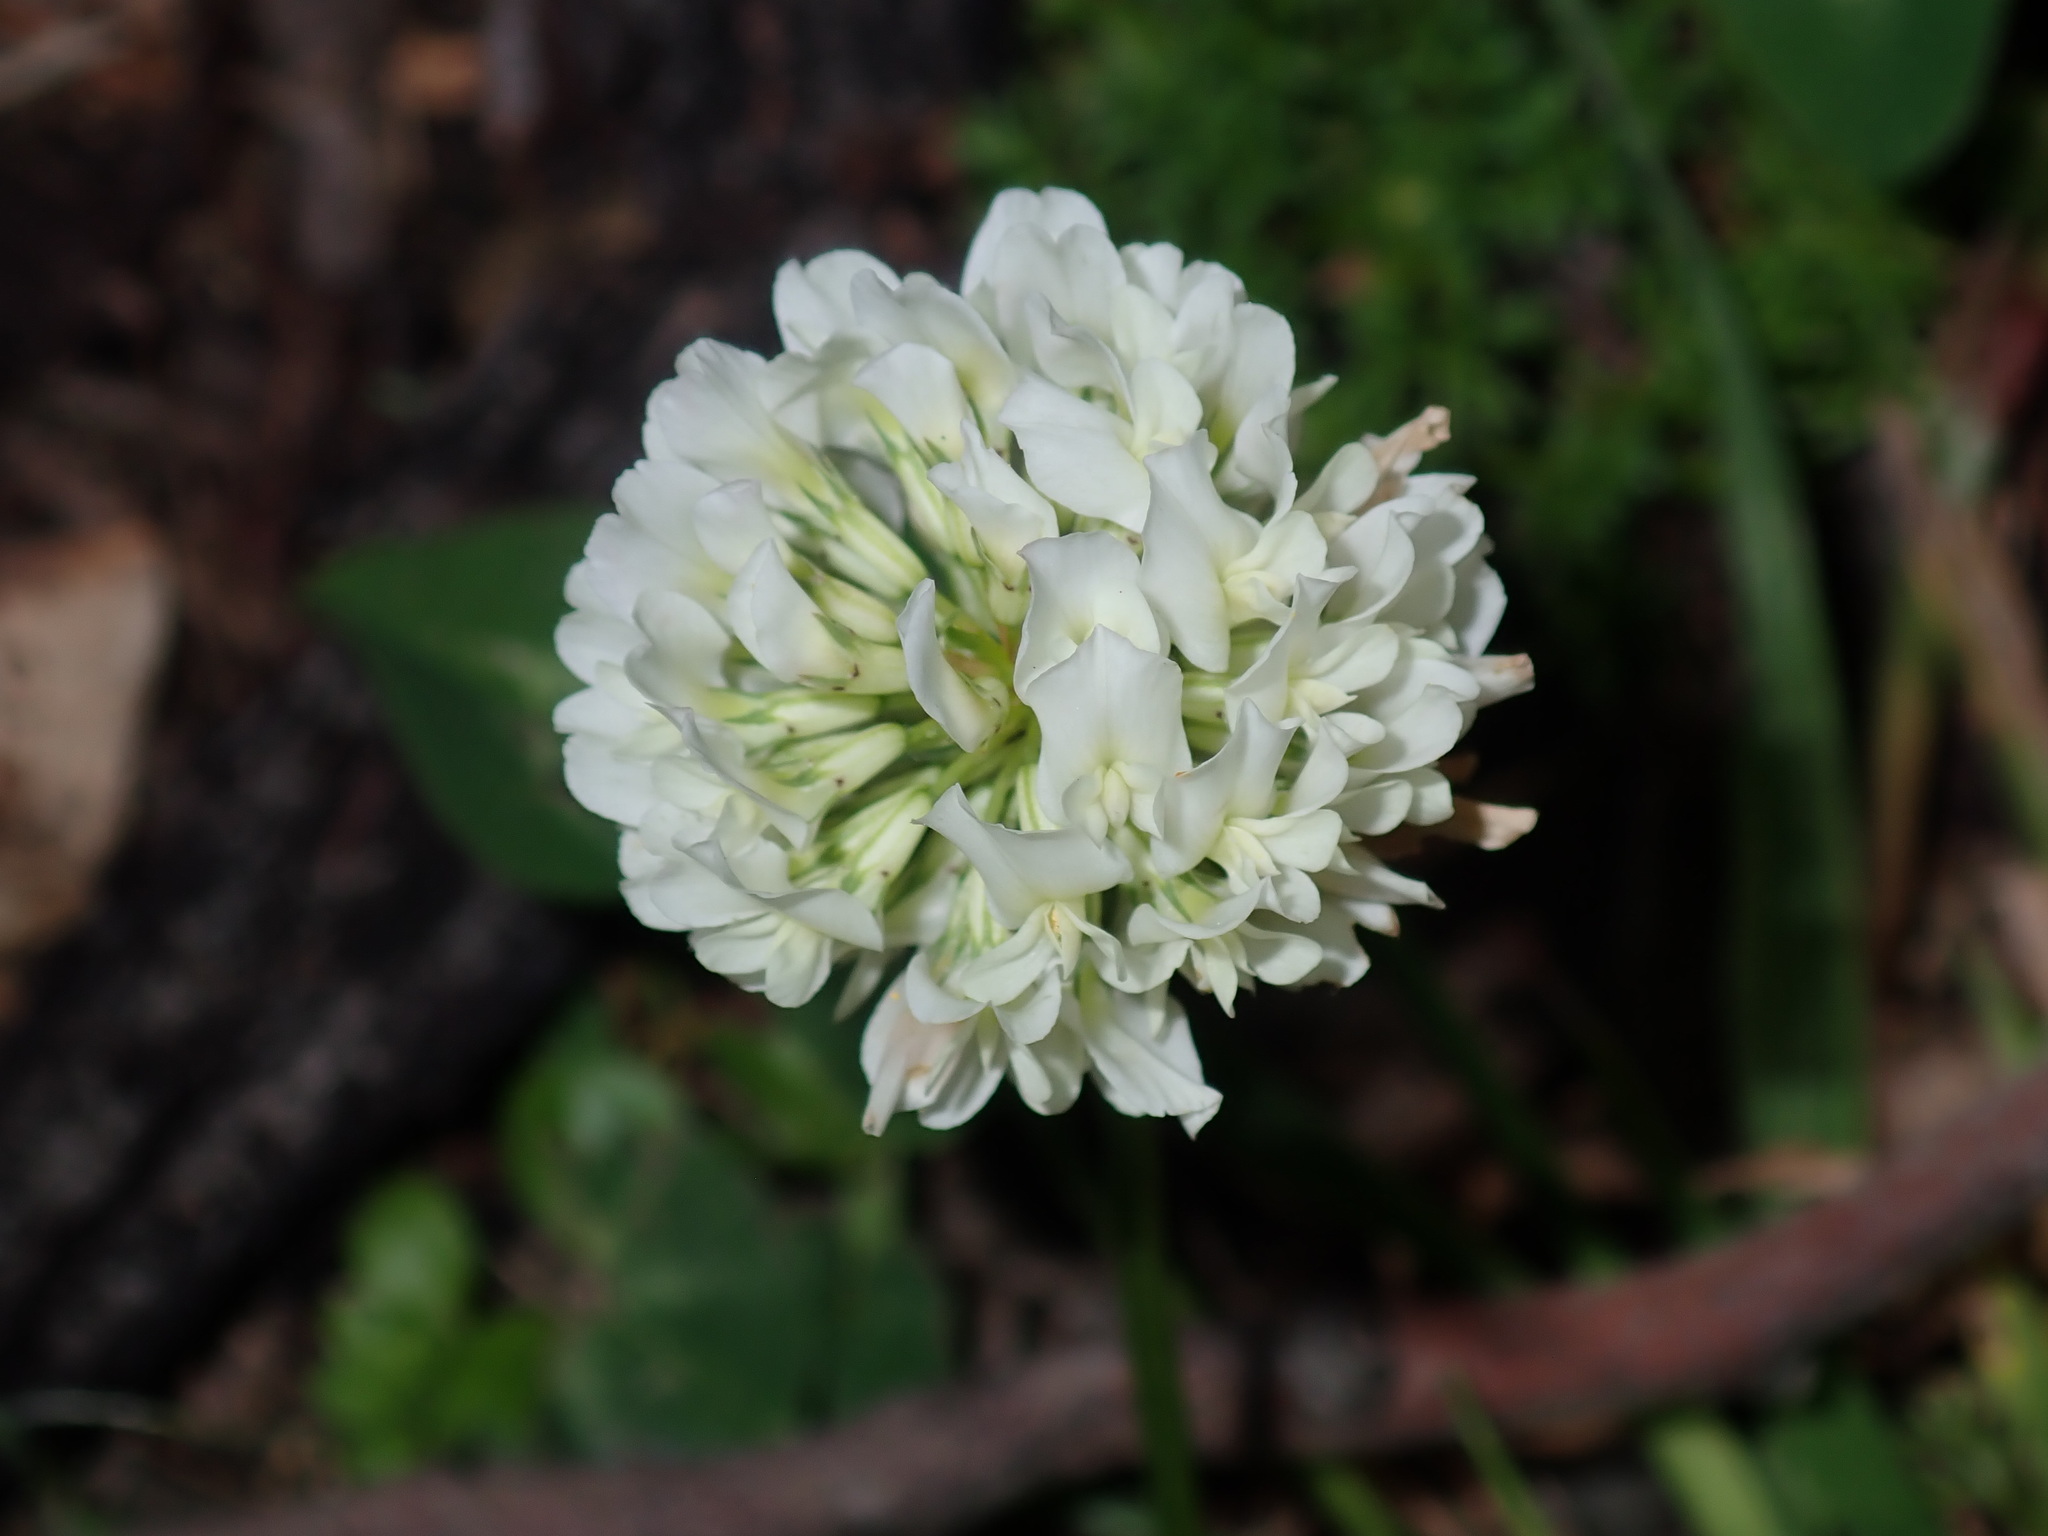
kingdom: Plantae
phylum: Tracheophyta
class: Magnoliopsida
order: Fabales
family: Fabaceae
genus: Trifolium
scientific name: Trifolium repens
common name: White clover
